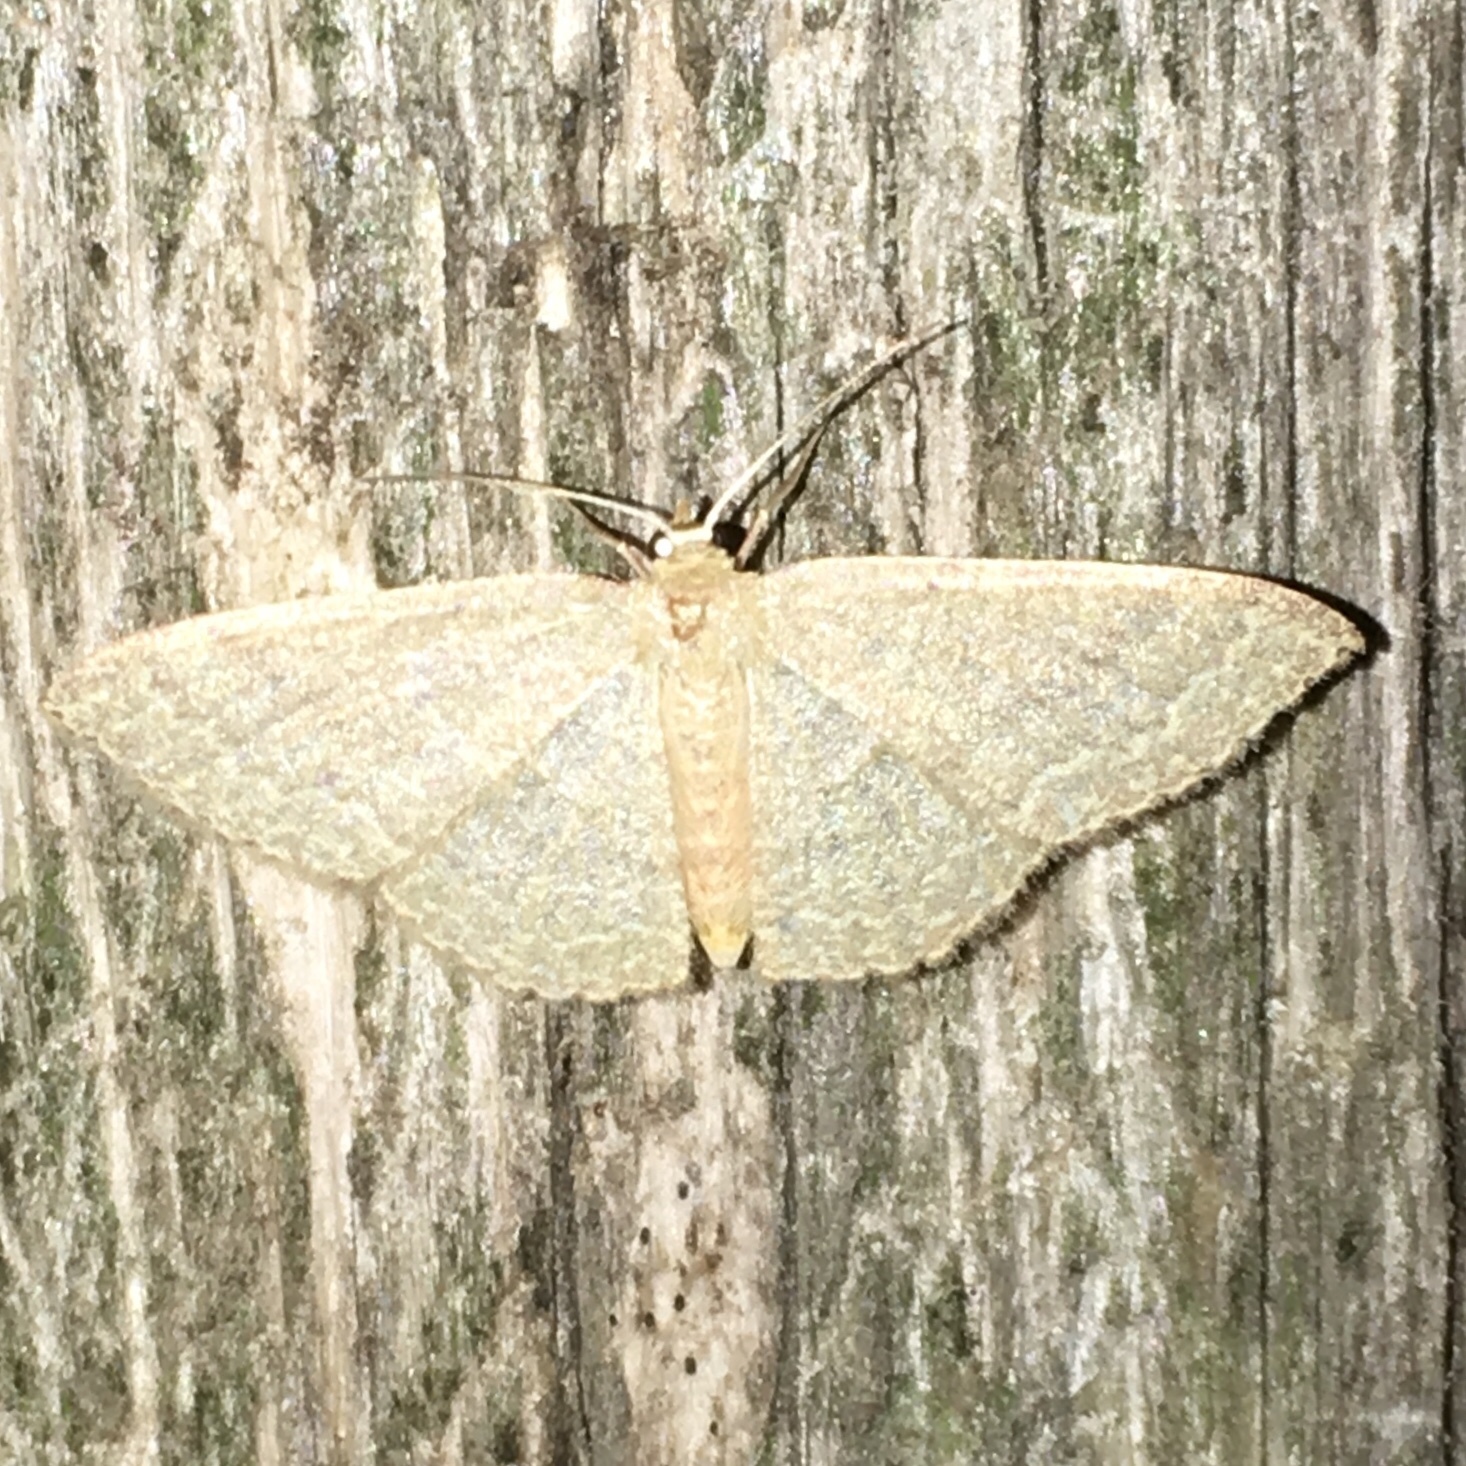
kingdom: Animalia
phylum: Arthropoda
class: Insecta
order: Lepidoptera
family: Geometridae
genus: Pleuroprucha
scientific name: Pleuroprucha insulsaria
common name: Common tan wave
